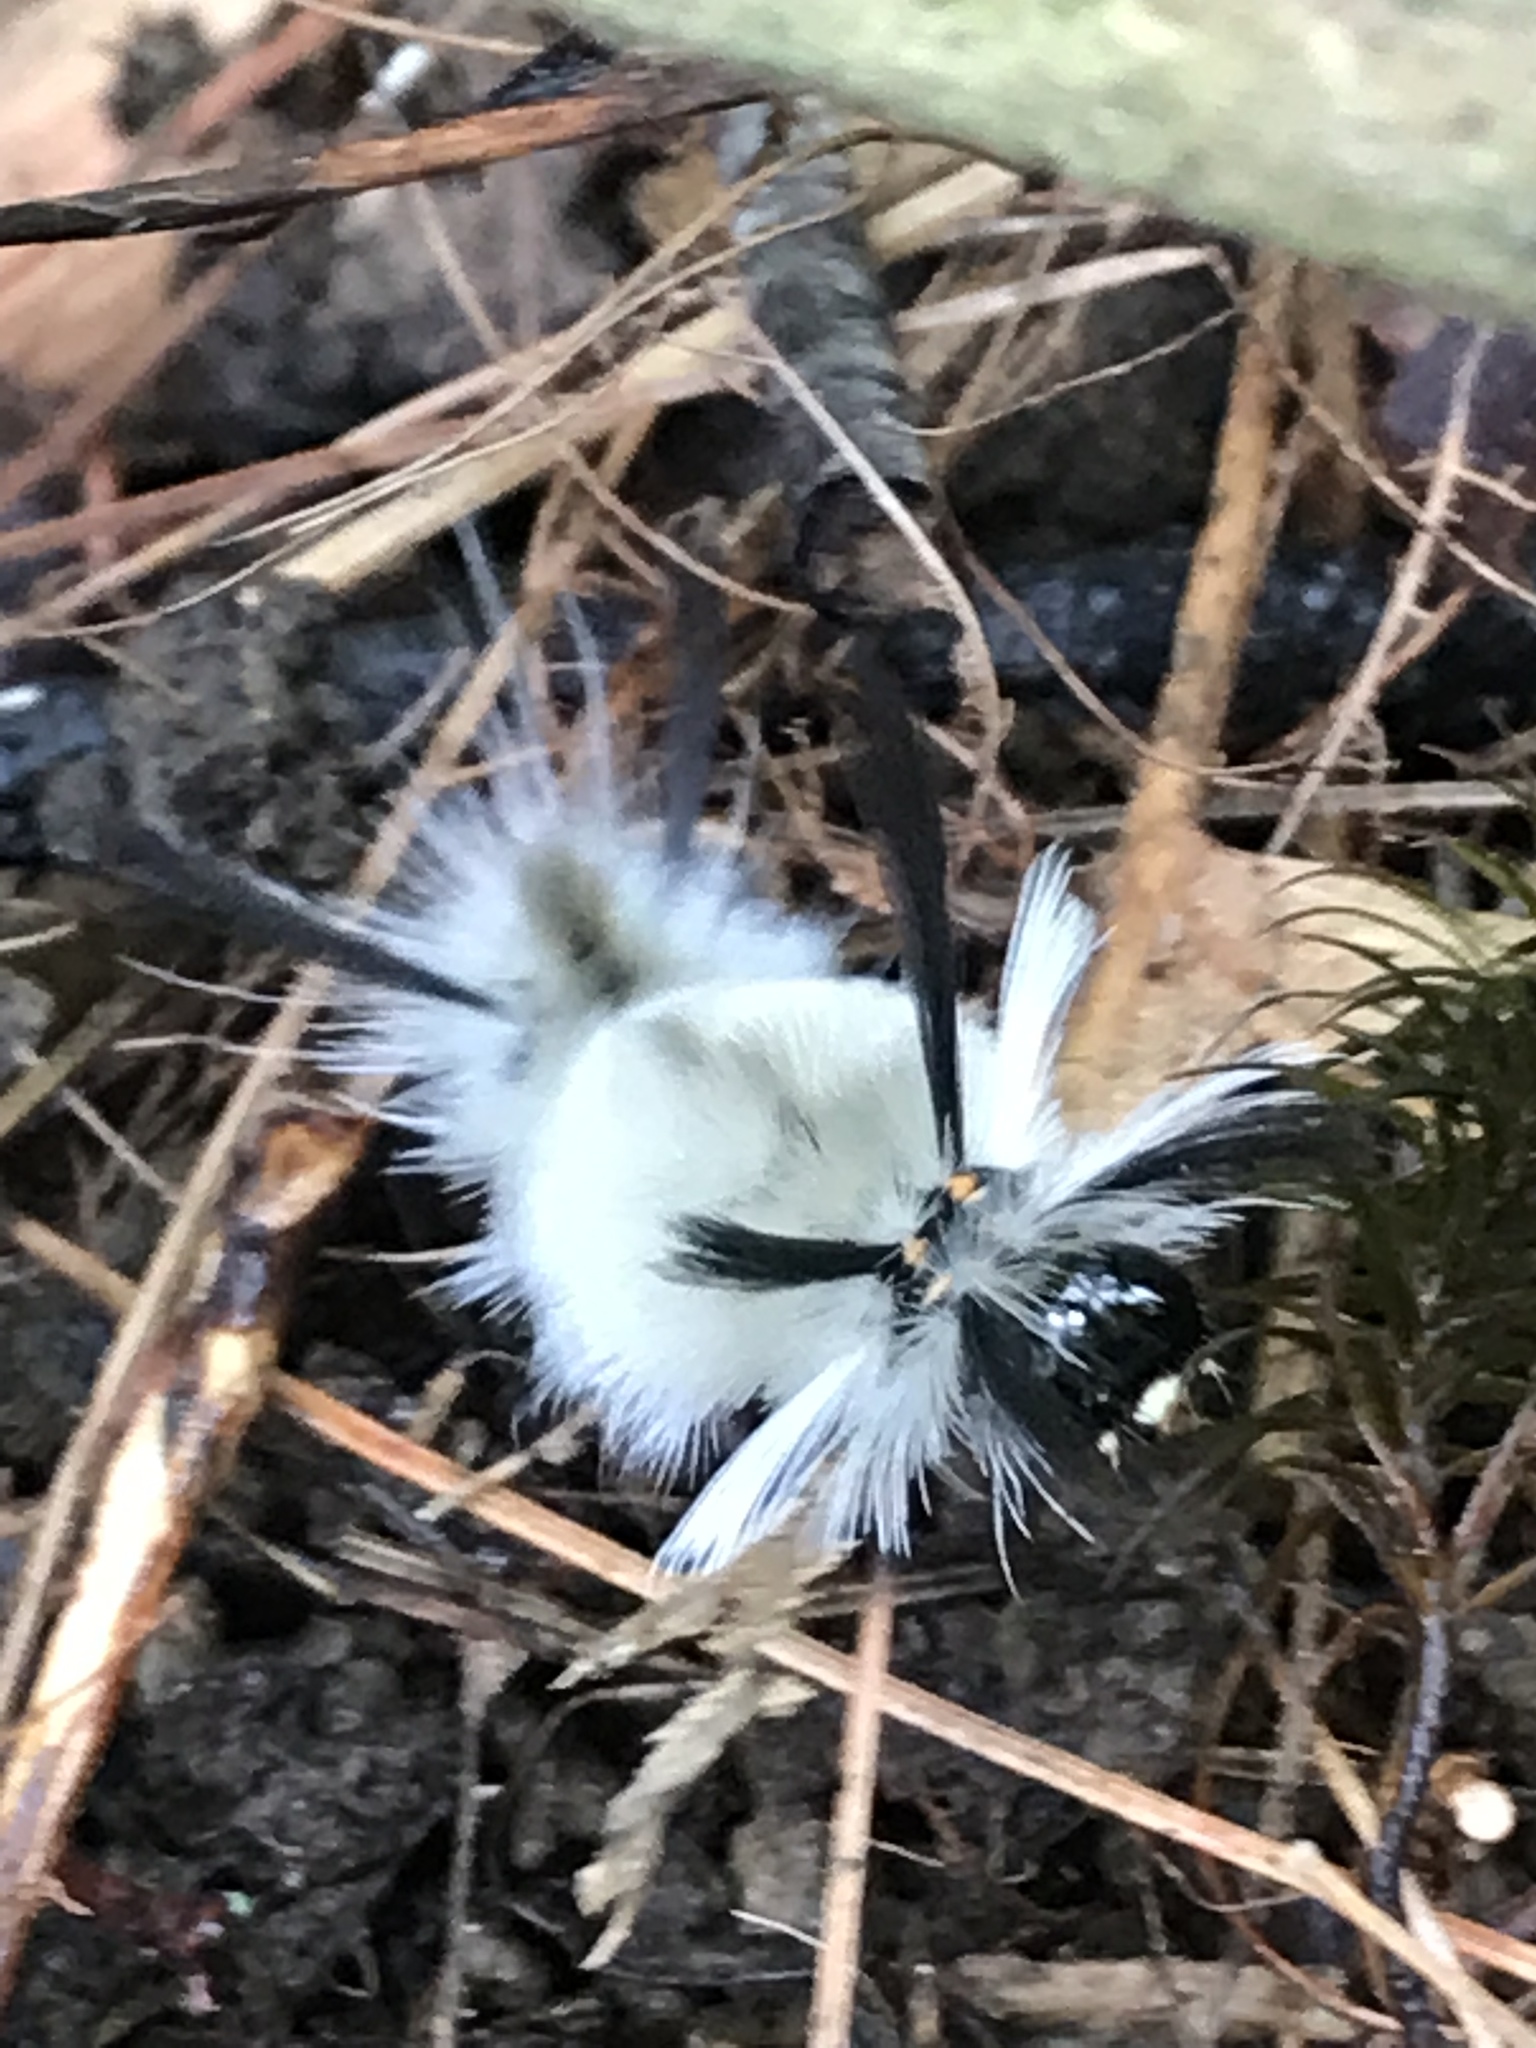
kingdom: Animalia
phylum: Arthropoda
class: Insecta
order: Lepidoptera
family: Erebidae
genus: Halysidota
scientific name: Halysidota tessellaris
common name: Banded tussock moth
